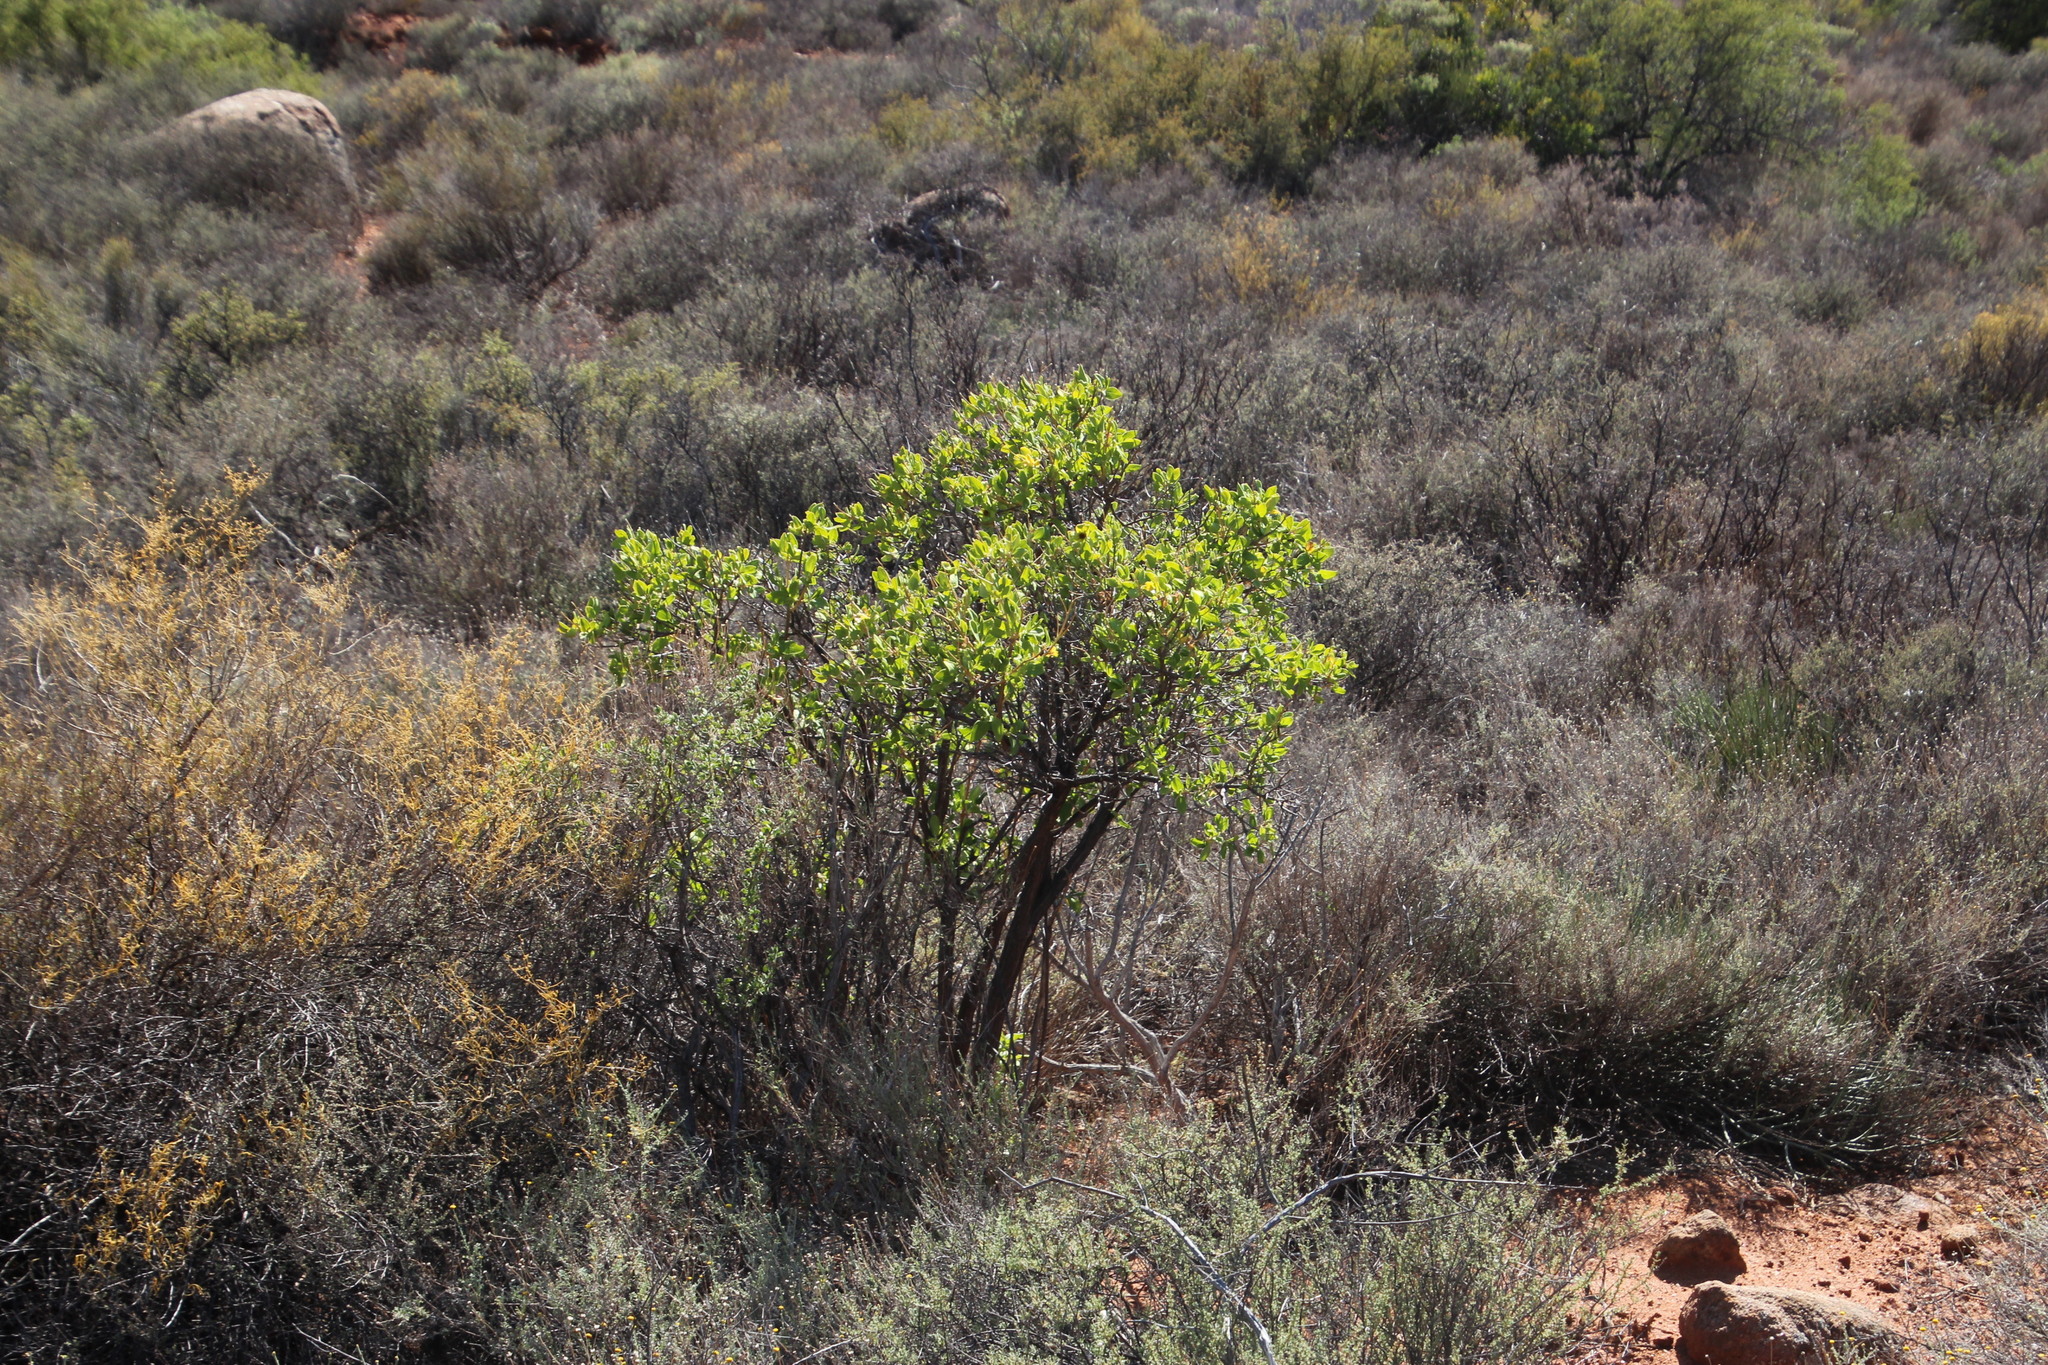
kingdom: Plantae
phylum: Tracheophyta
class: Magnoliopsida
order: Asterales
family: Asteraceae
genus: Didelta
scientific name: Didelta spinosa
